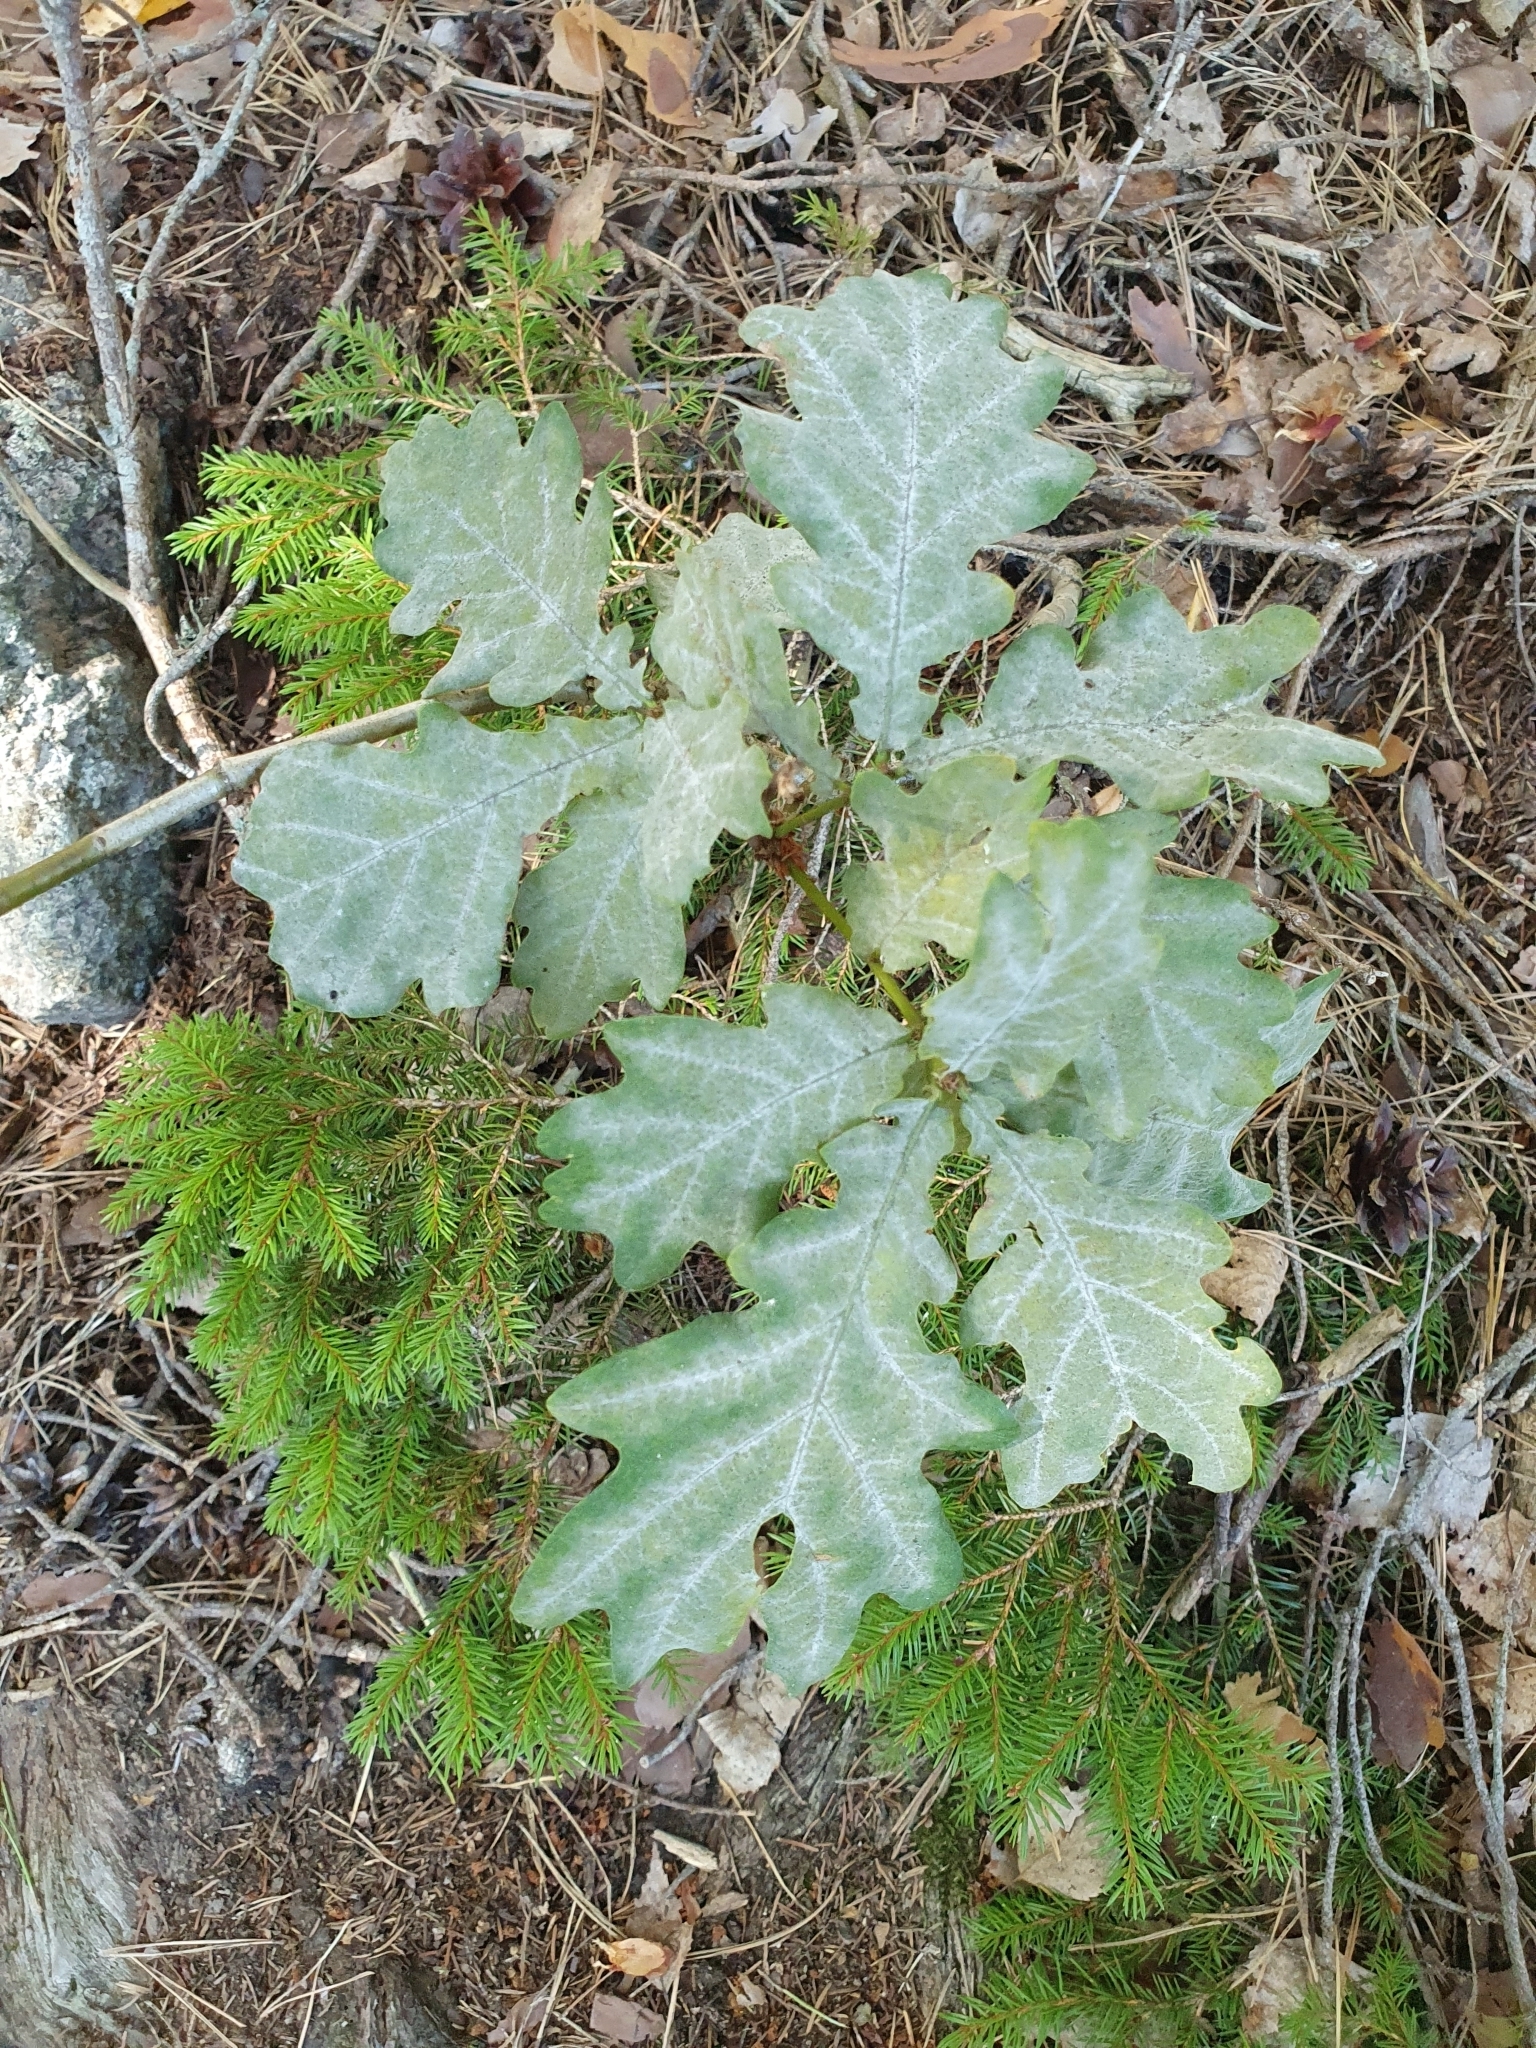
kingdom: Fungi
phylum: Ascomycota
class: Leotiomycetes
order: Helotiales
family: Erysiphaceae
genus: Erysiphe
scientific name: Erysiphe alphitoides
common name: Oak mildew
